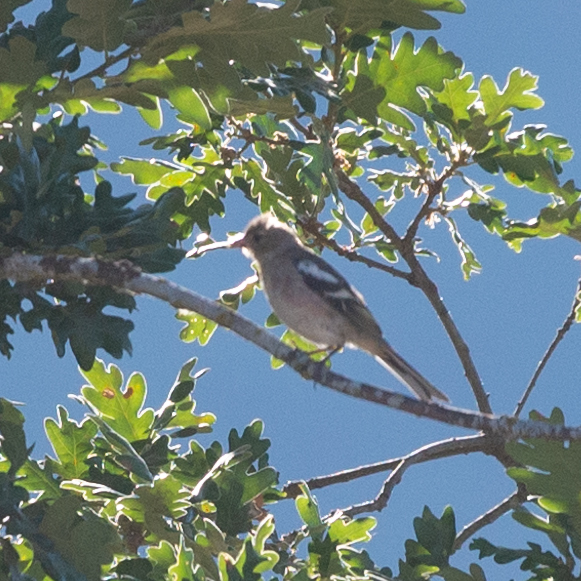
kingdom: Animalia
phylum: Chordata
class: Aves
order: Passeriformes
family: Fringillidae
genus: Fringilla
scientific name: Fringilla coelebs
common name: Common chaffinch
